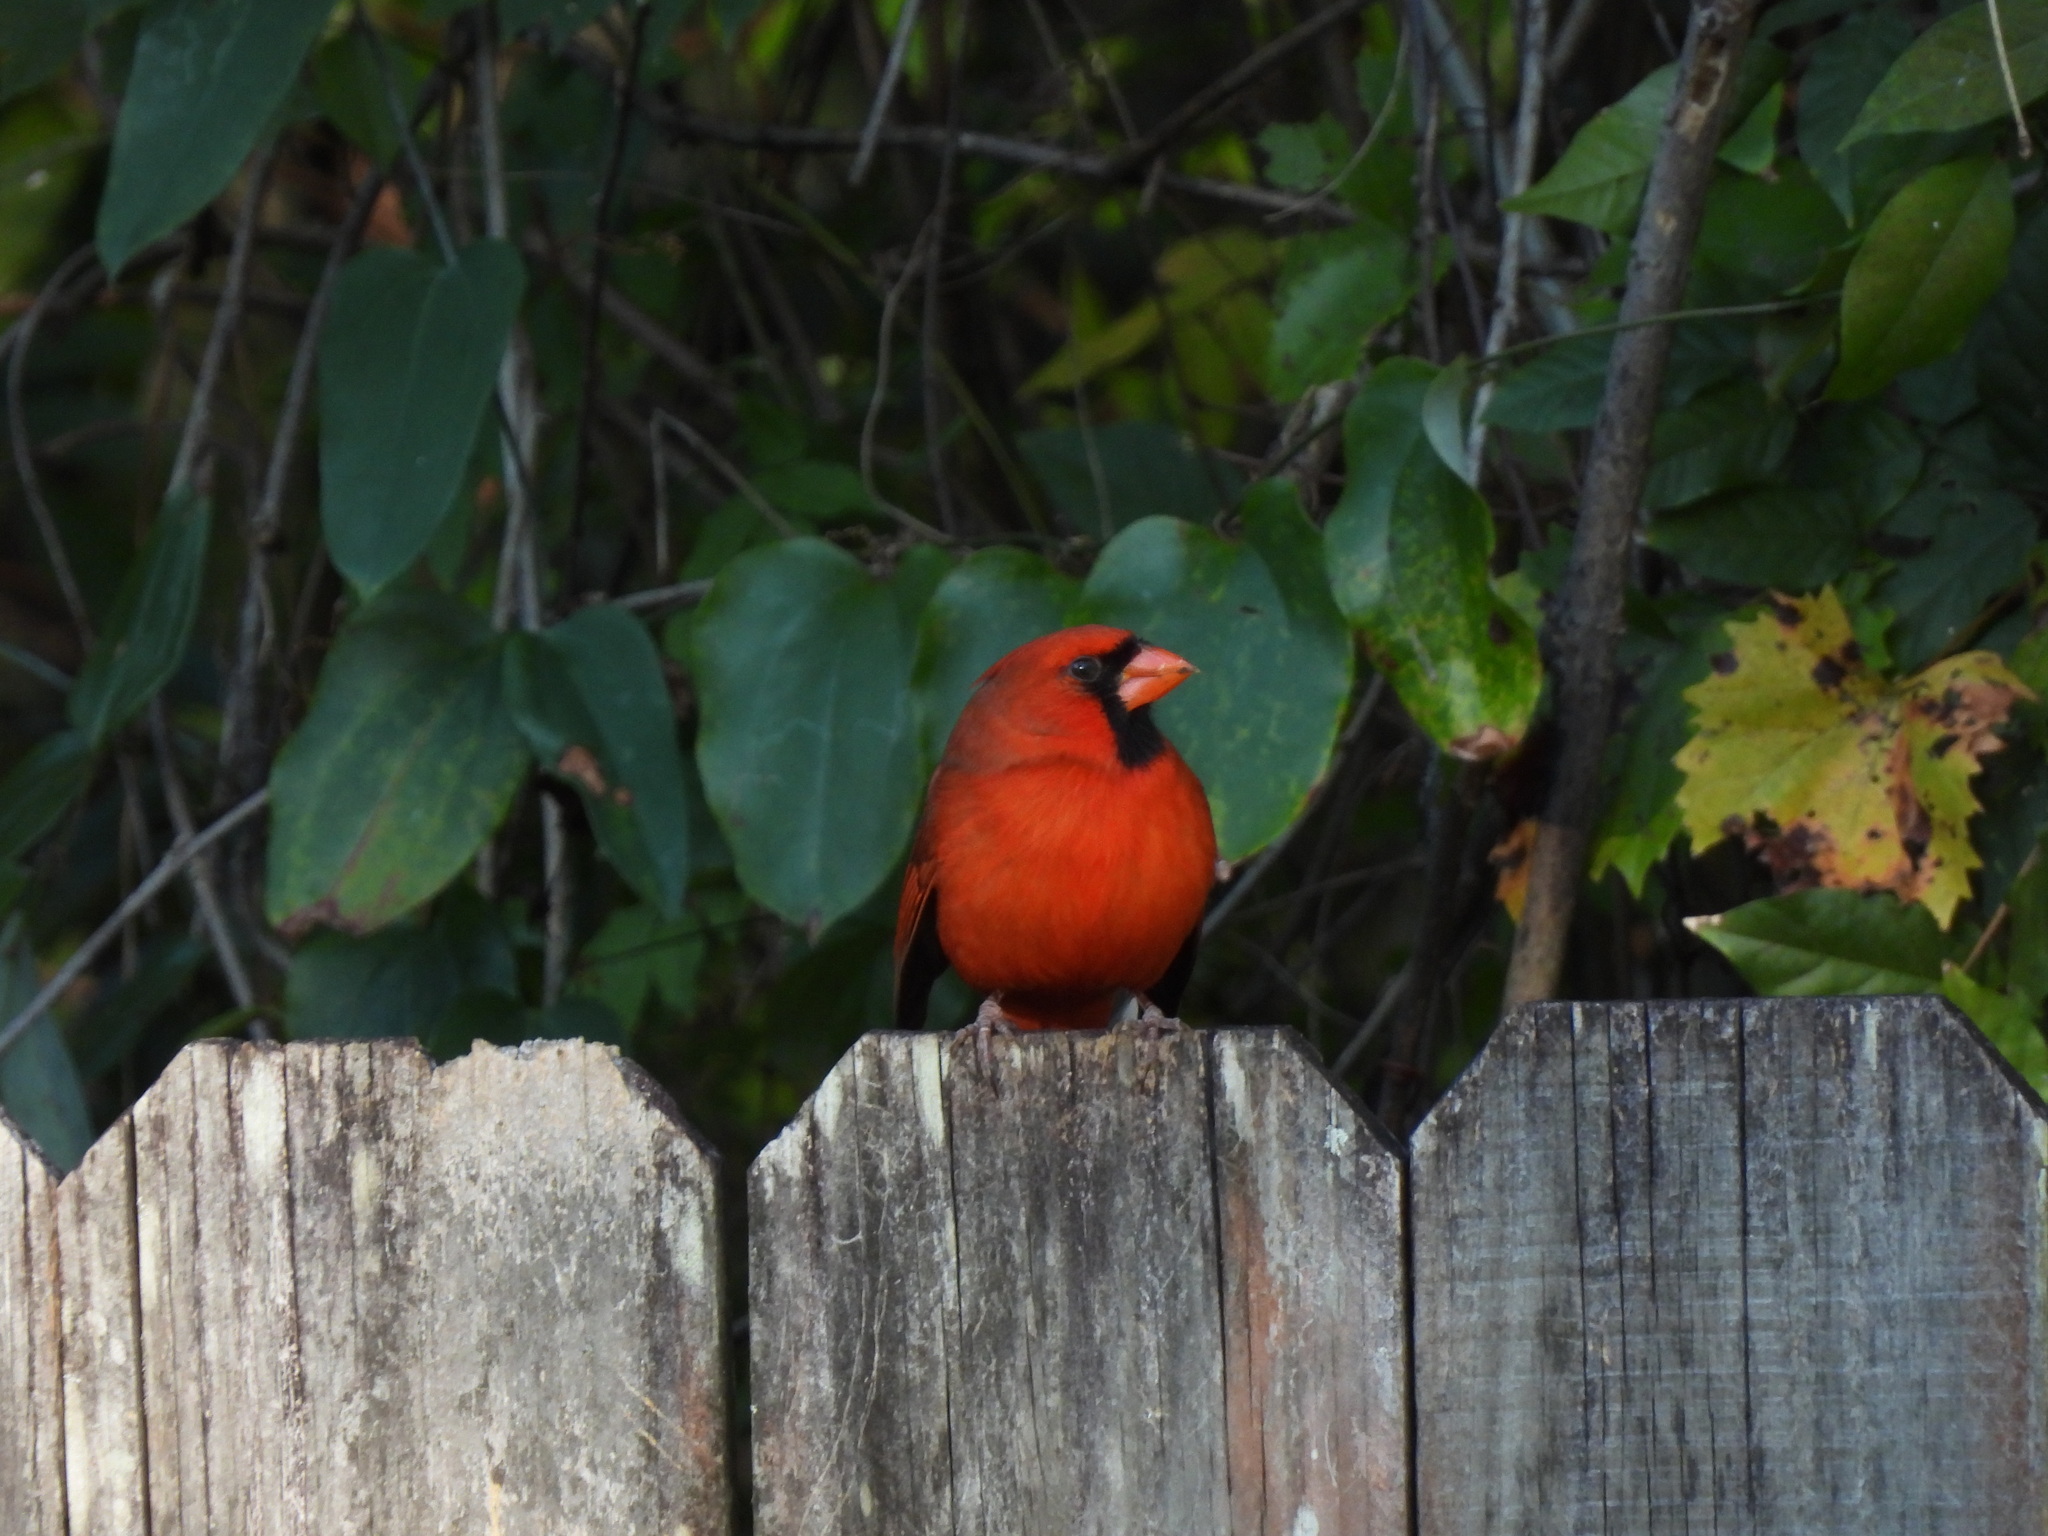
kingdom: Animalia
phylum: Chordata
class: Aves
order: Passeriformes
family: Cardinalidae
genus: Cardinalis
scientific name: Cardinalis cardinalis
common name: Northern cardinal
